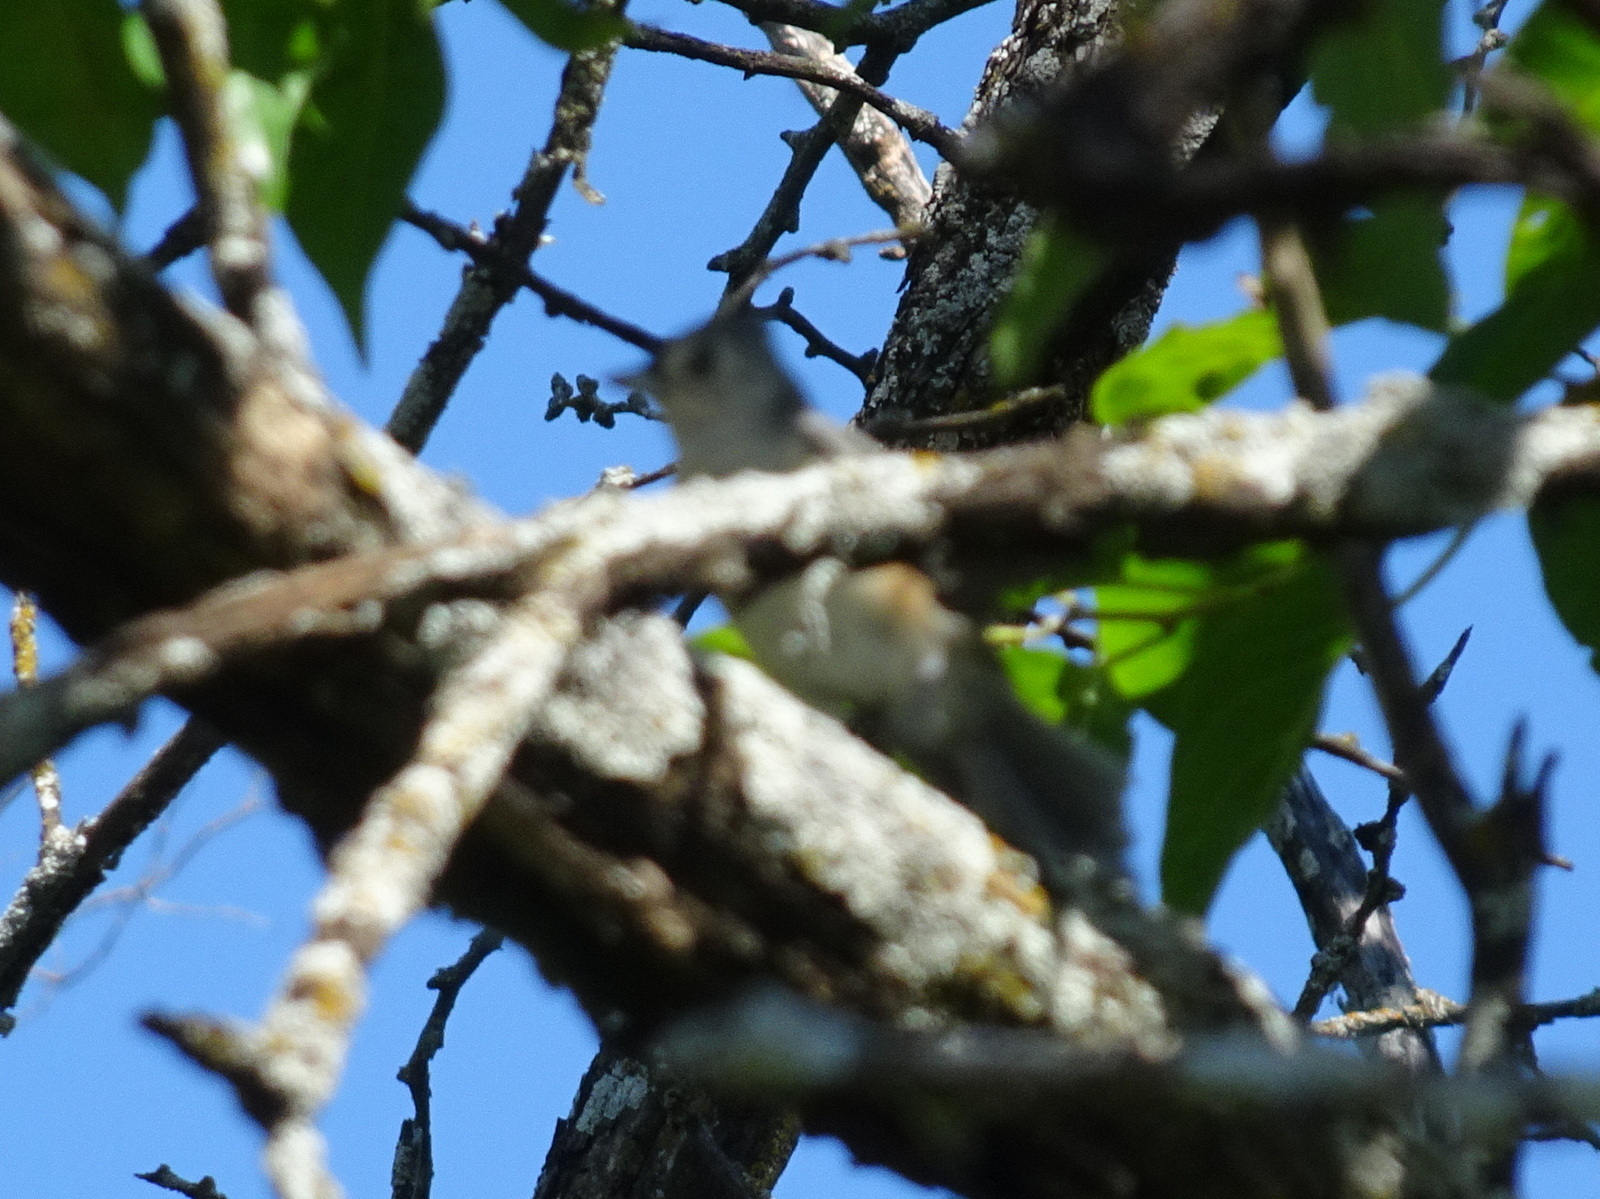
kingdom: Animalia
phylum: Chordata
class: Aves
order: Passeriformes
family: Paridae
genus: Baeolophus
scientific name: Baeolophus bicolor
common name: Tufted titmouse
